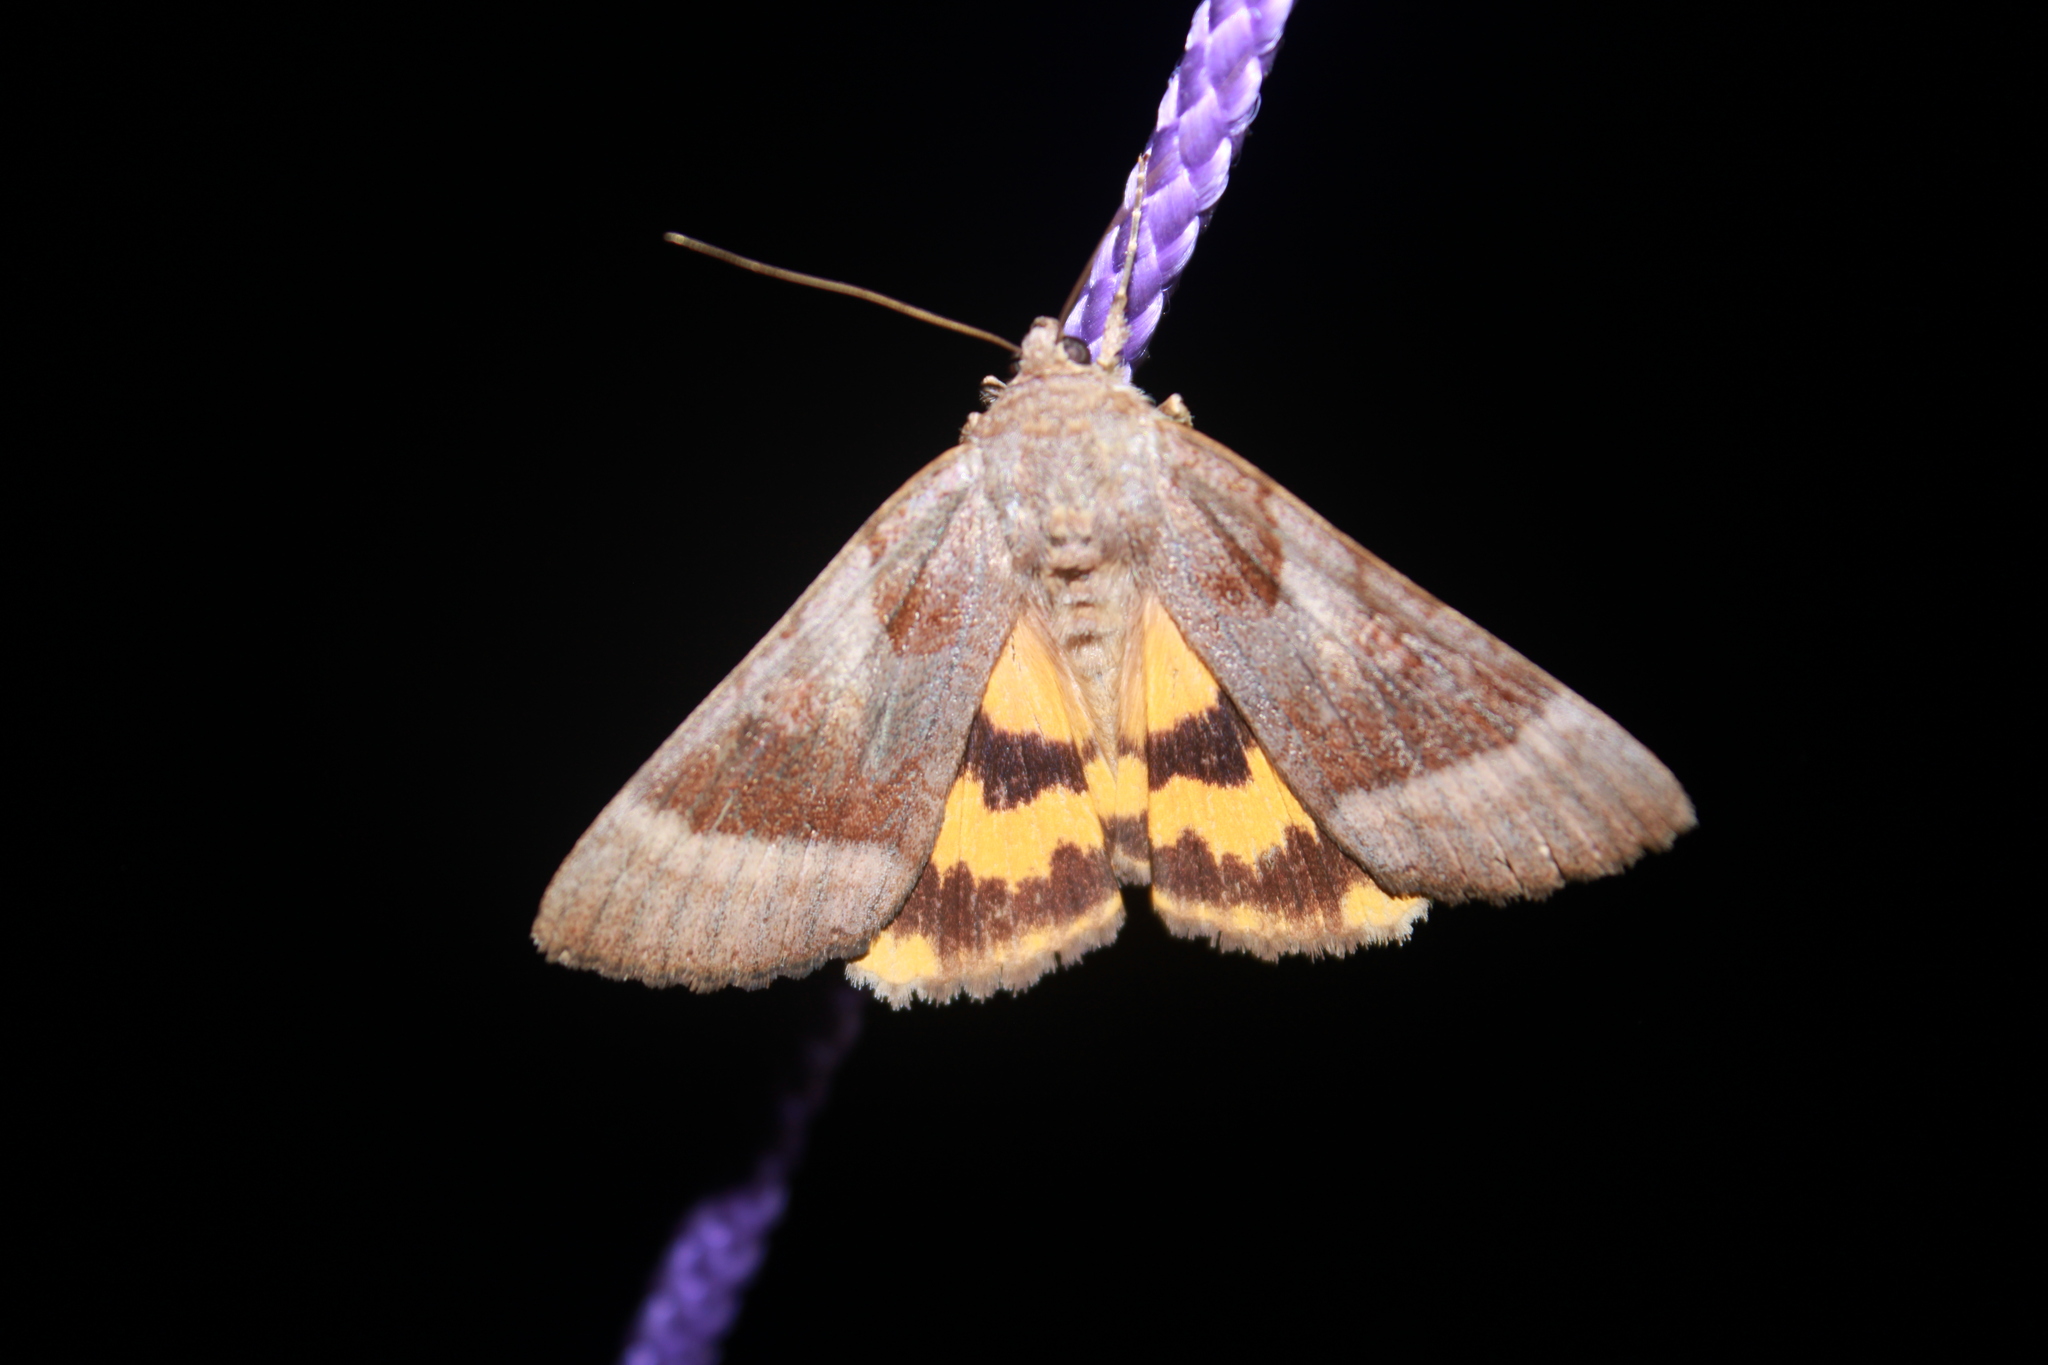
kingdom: Animalia
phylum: Arthropoda
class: Insecta
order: Lepidoptera
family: Erebidae
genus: Catocala
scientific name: Catocala badia
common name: Bay underwing
